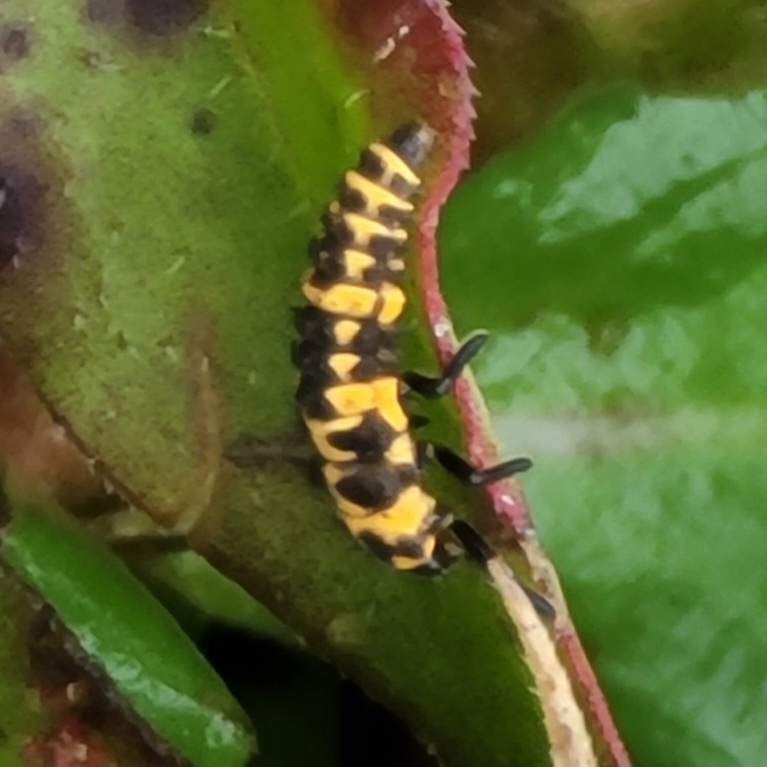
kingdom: Animalia
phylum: Arthropoda
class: Insecta
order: Coleoptera
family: Coccinellidae
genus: Coleomegilla
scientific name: Coleomegilla maculata
